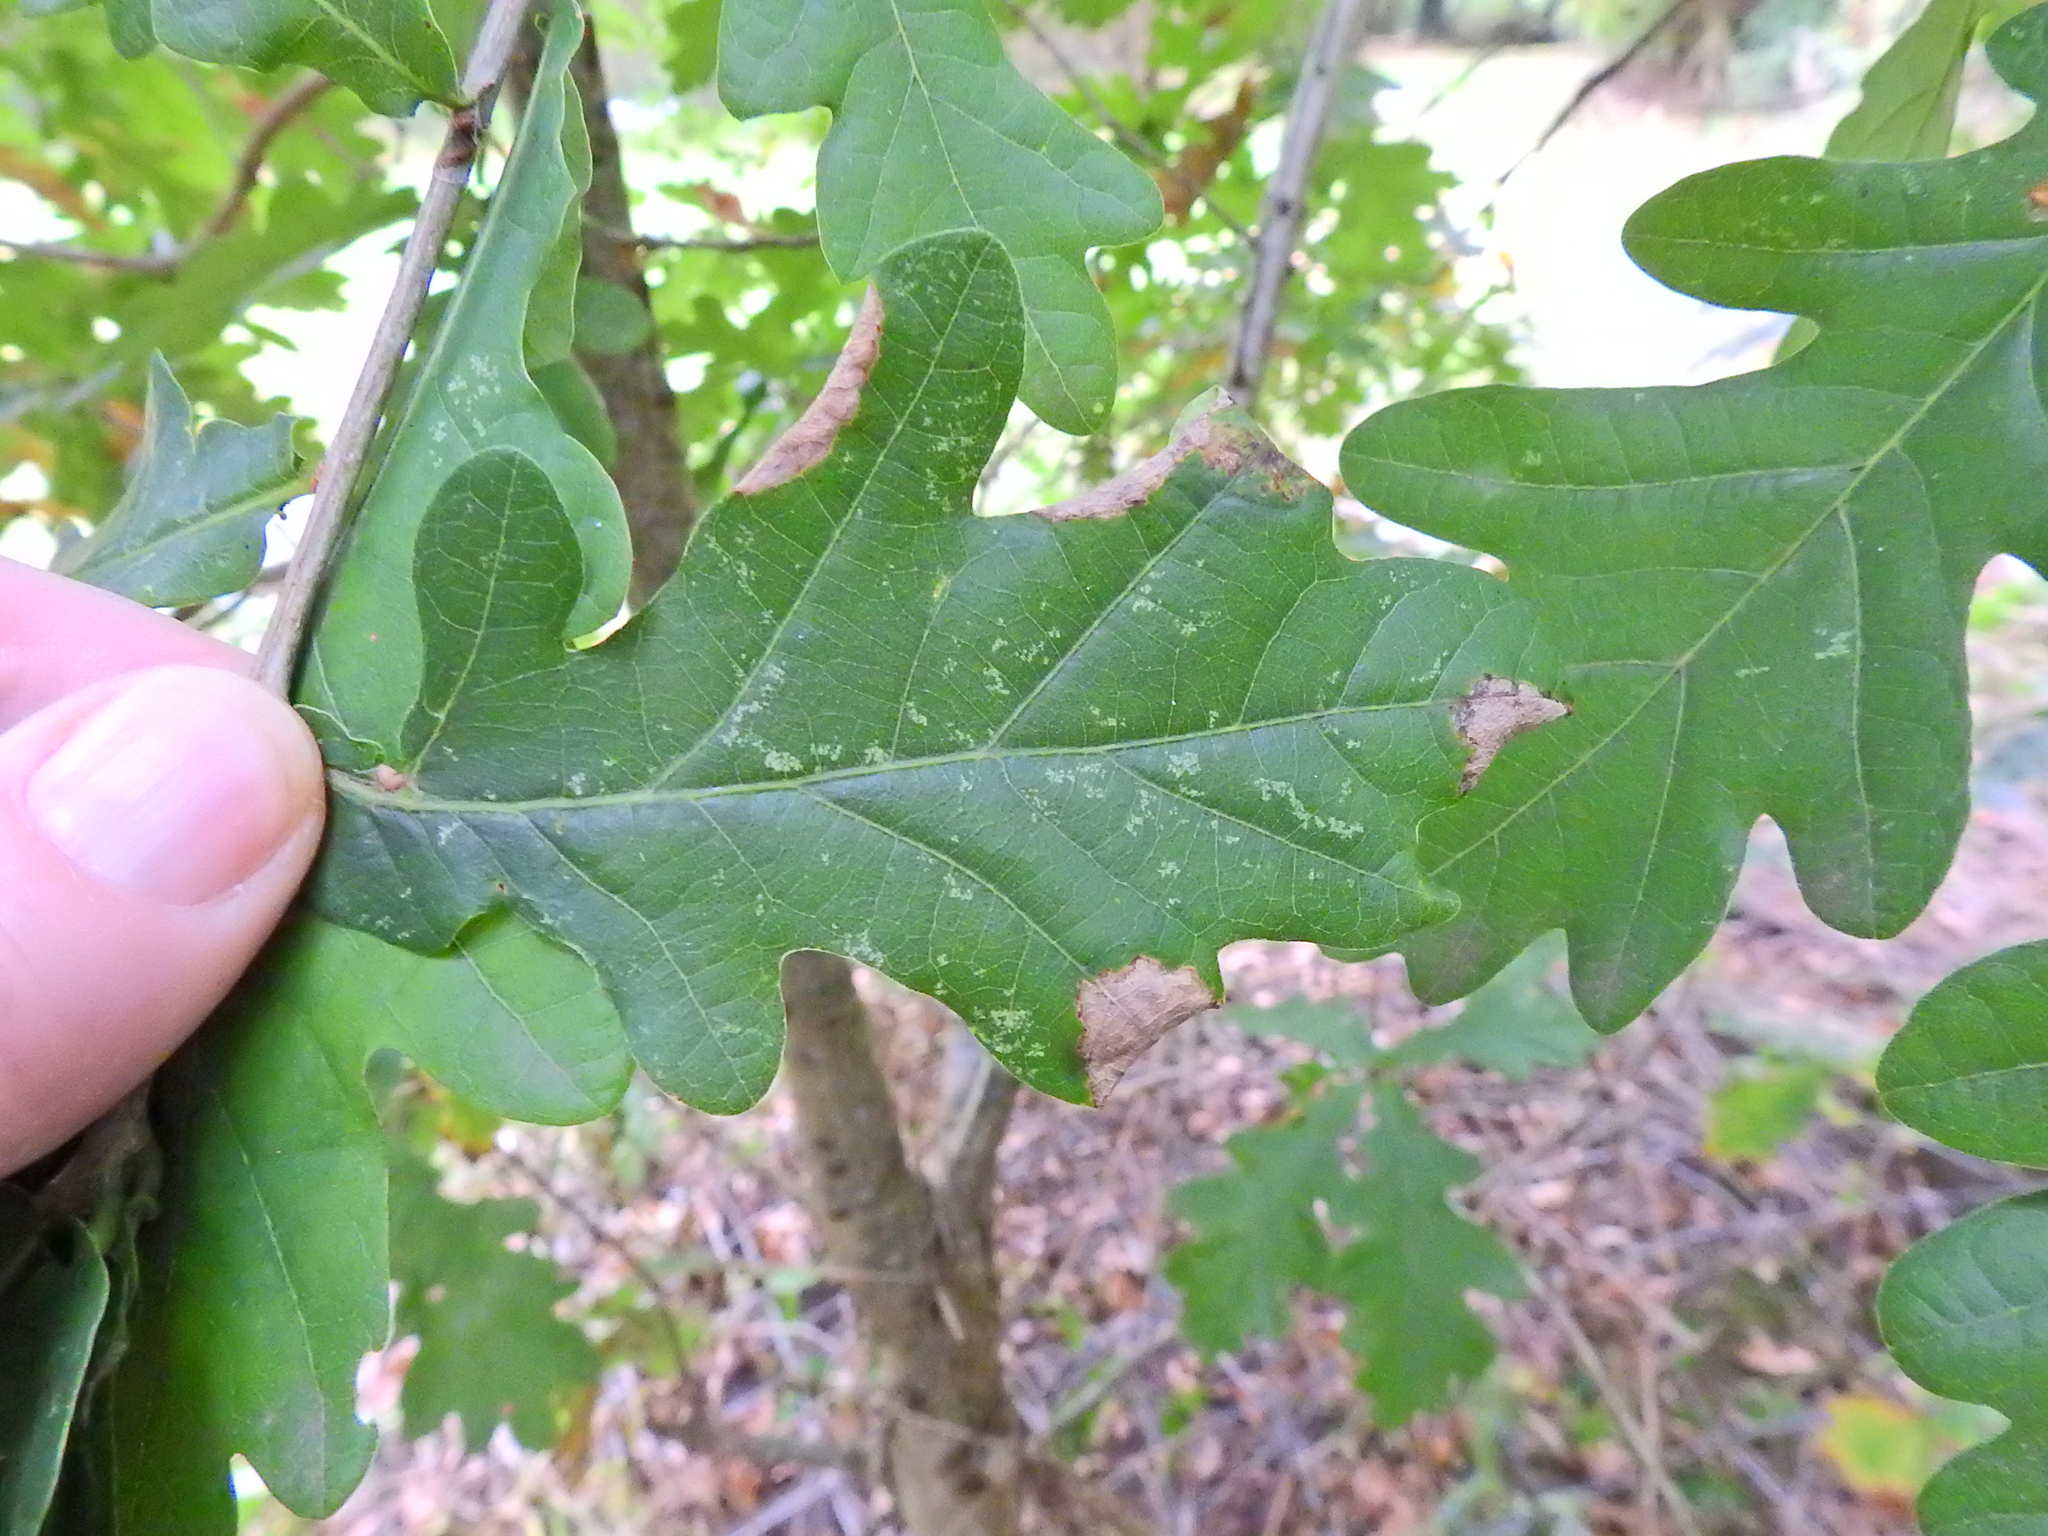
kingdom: Animalia
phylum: Arthropoda
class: Insecta
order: Diptera
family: Cecidomyiidae
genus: Macrodiplosis
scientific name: Macrodiplosis pustularis
